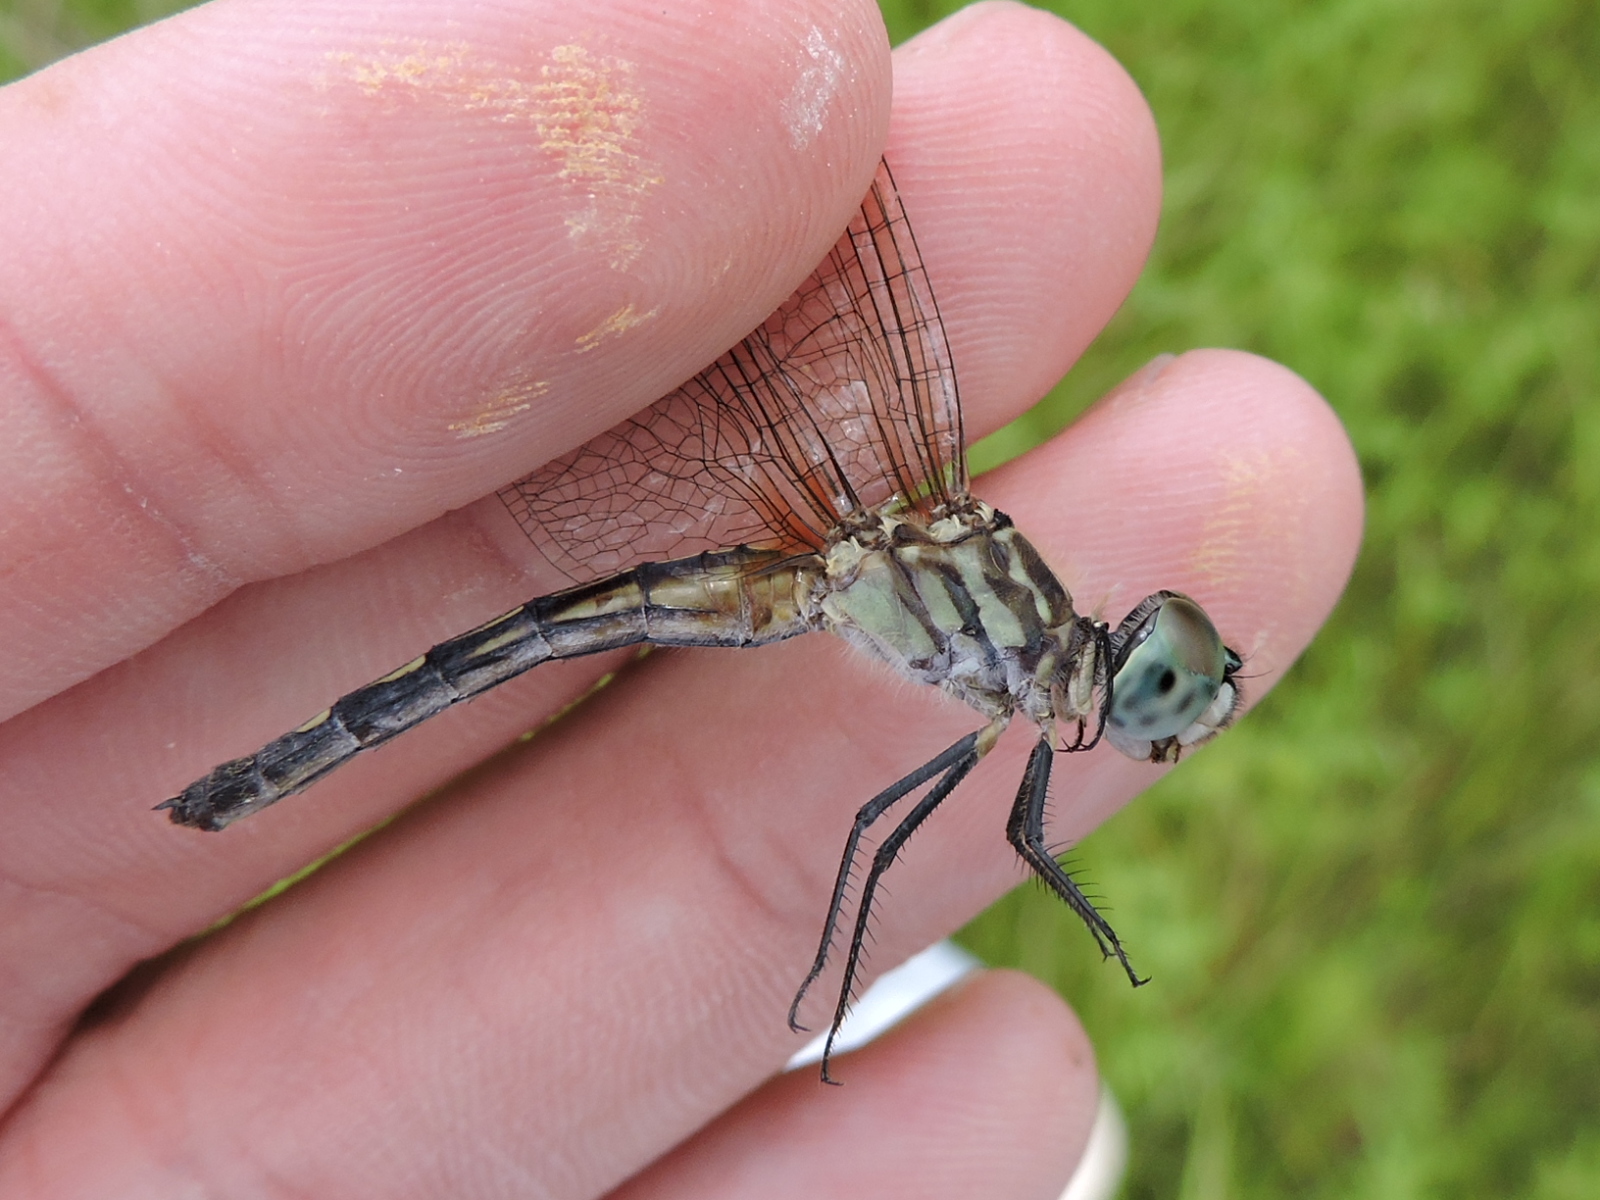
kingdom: Animalia
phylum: Arthropoda
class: Insecta
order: Odonata
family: Libellulidae
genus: Pachydiplax
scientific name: Pachydiplax longipennis
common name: Blue dasher
